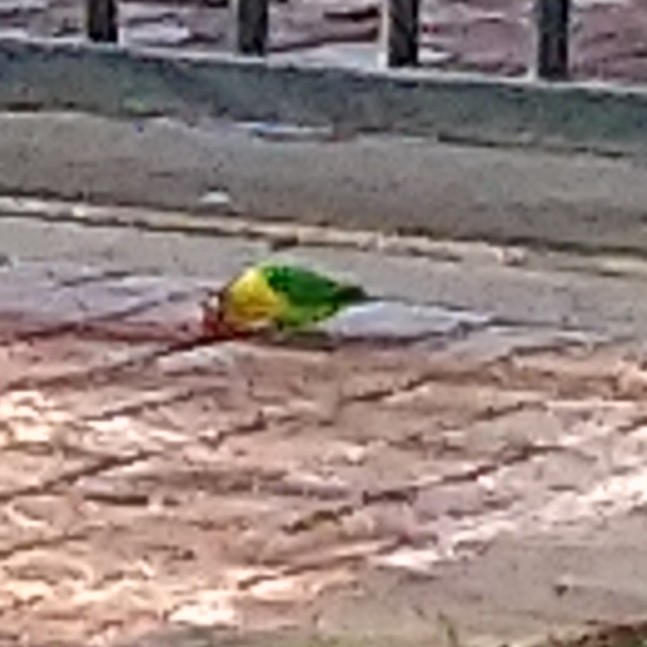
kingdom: Animalia
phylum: Chordata
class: Aves
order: Psittaciformes
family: Psittacidae
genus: Agapornis
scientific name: Agapornis personatus
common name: Yellow-collared lovebird
